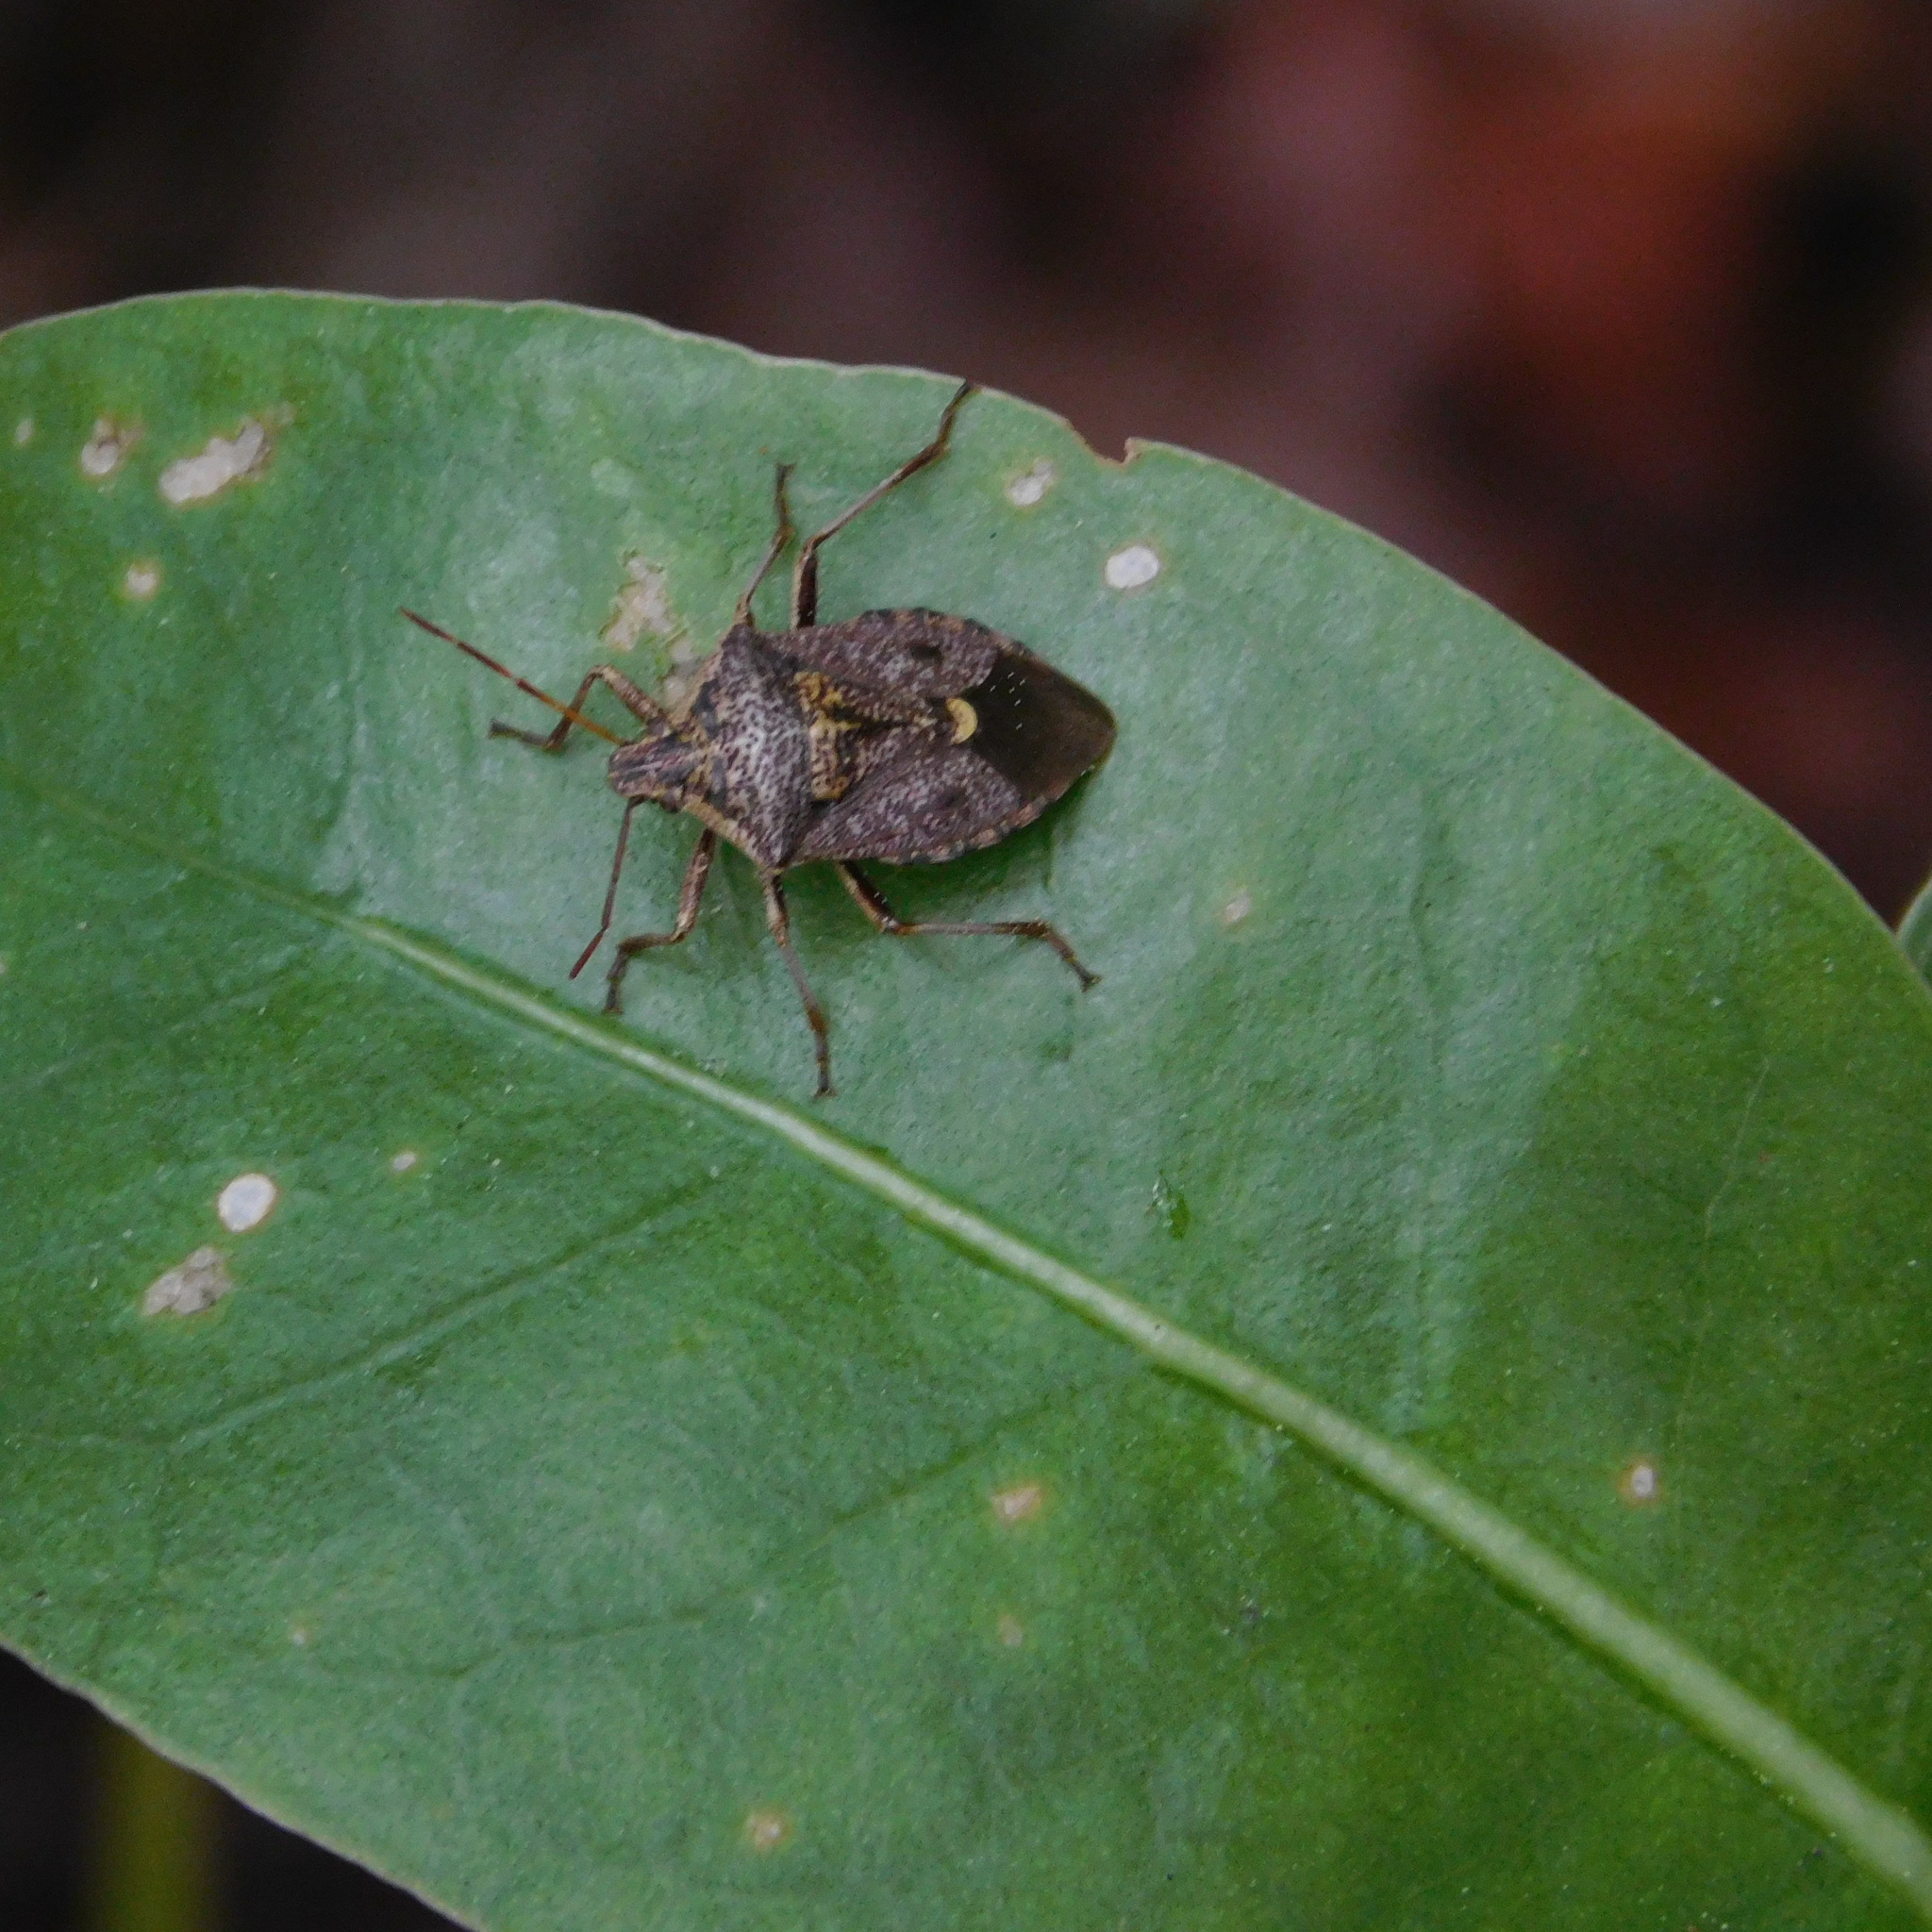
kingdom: Animalia
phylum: Arthropoda
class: Insecta
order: Hemiptera
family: Pentatomidae
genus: Cermatulus
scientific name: Cermatulus nasalis
